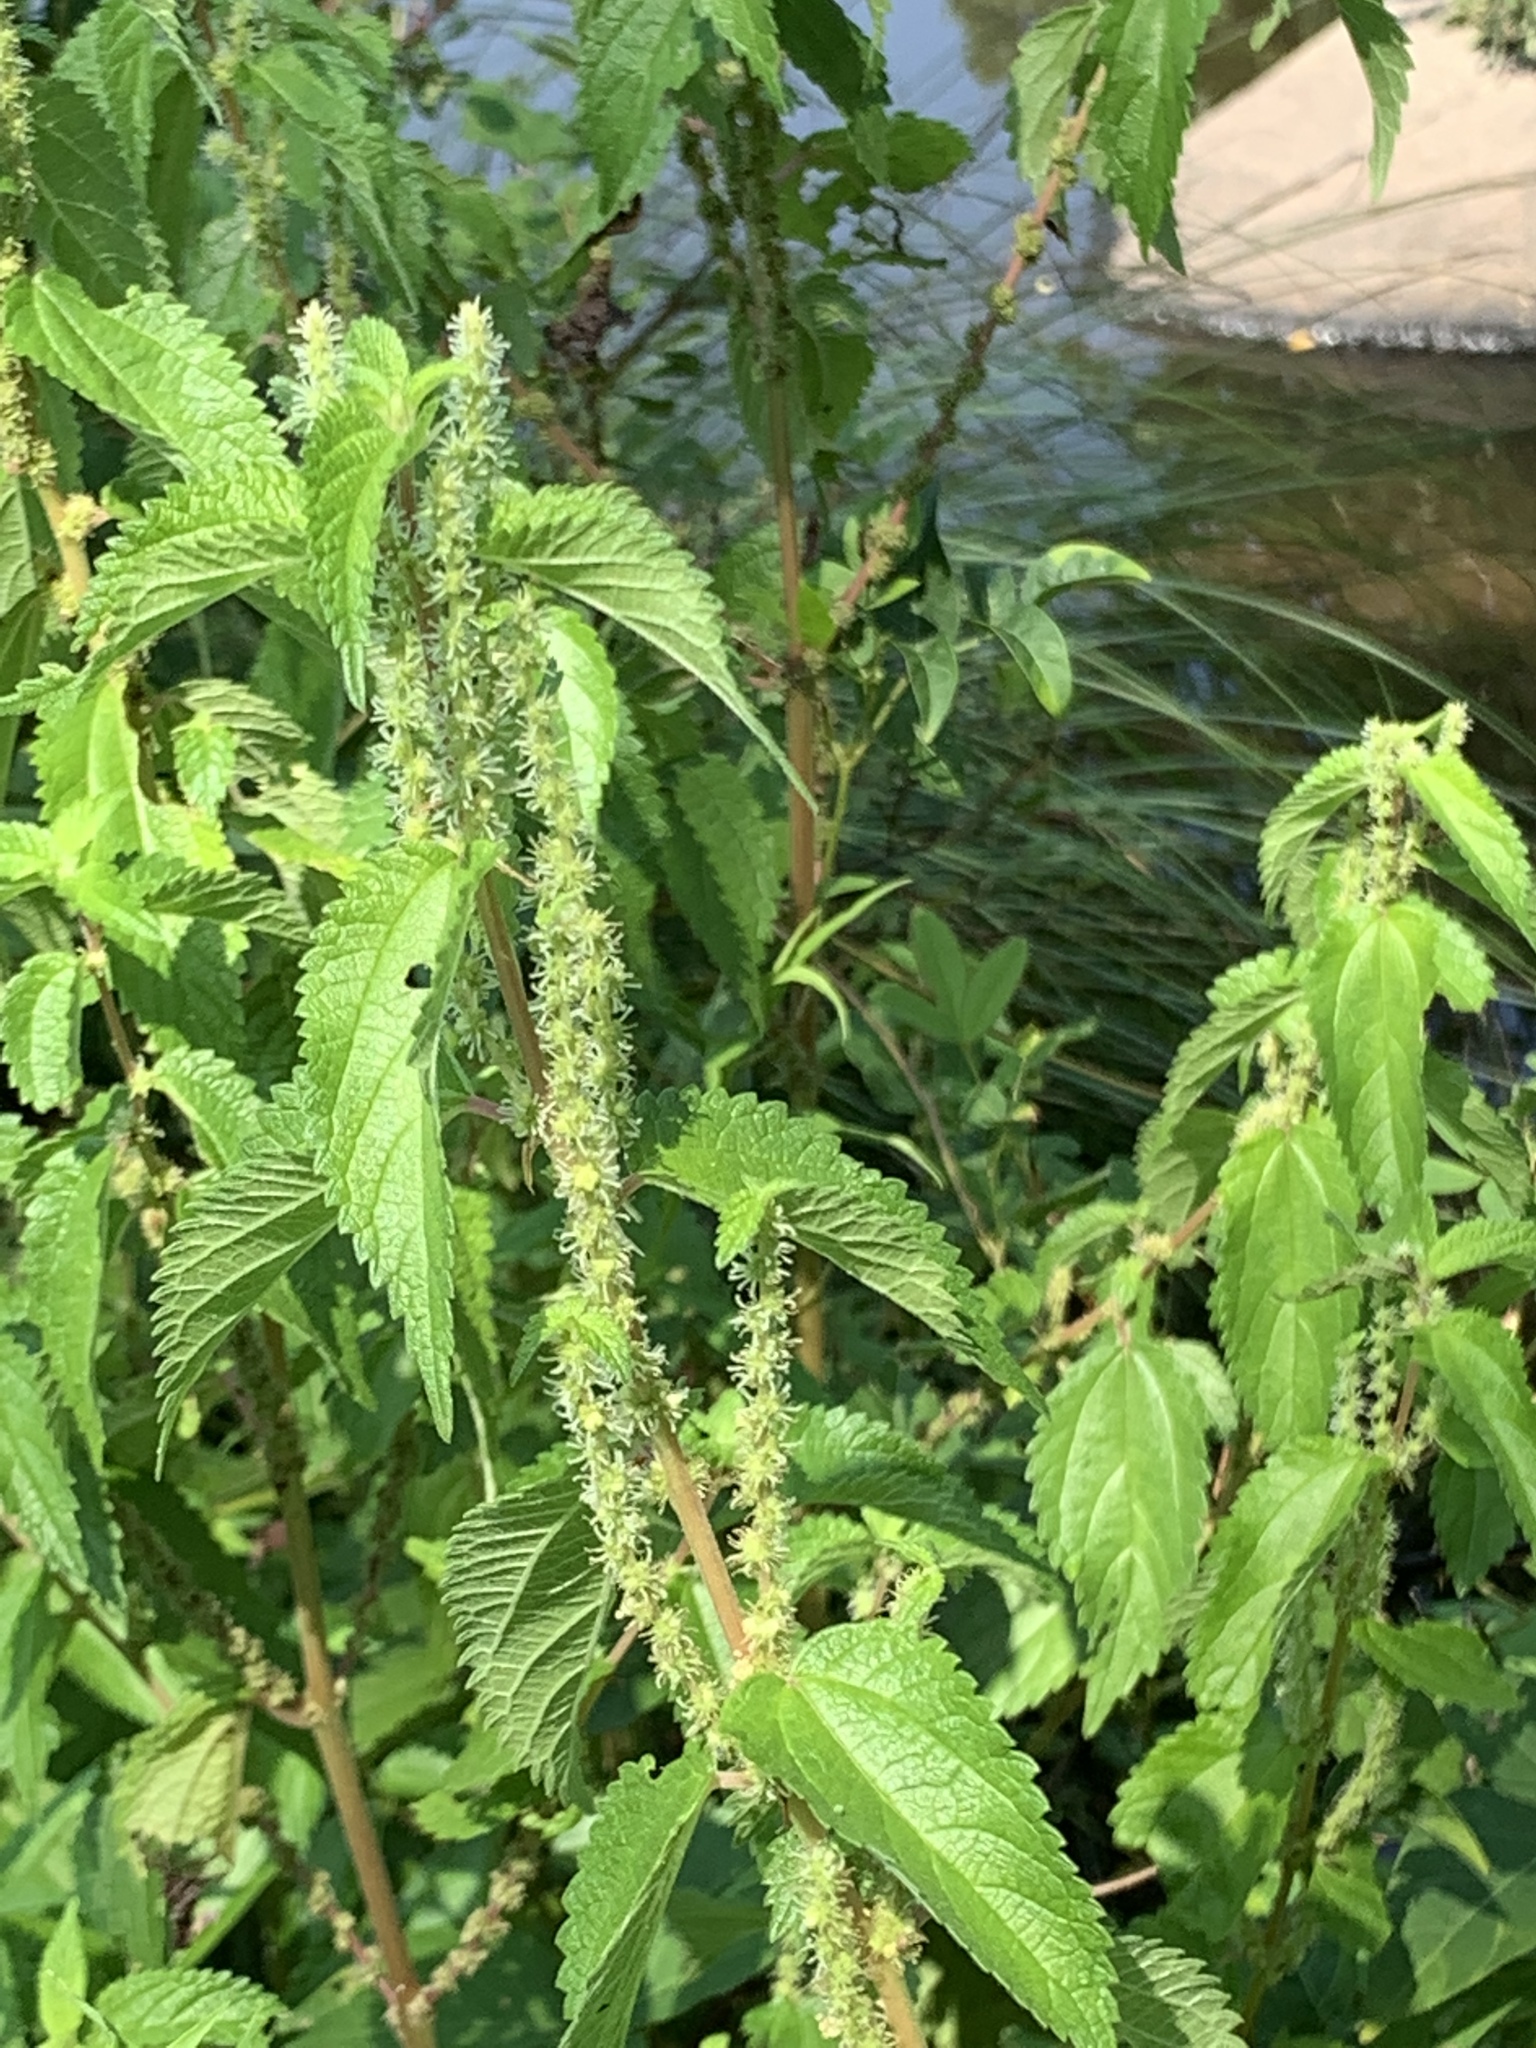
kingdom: Plantae
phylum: Tracheophyta
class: Magnoliopsida
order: Rosales
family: Urticaceae
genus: Boehmeria
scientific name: Boehmeria cylindrica
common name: Bog-hemp
